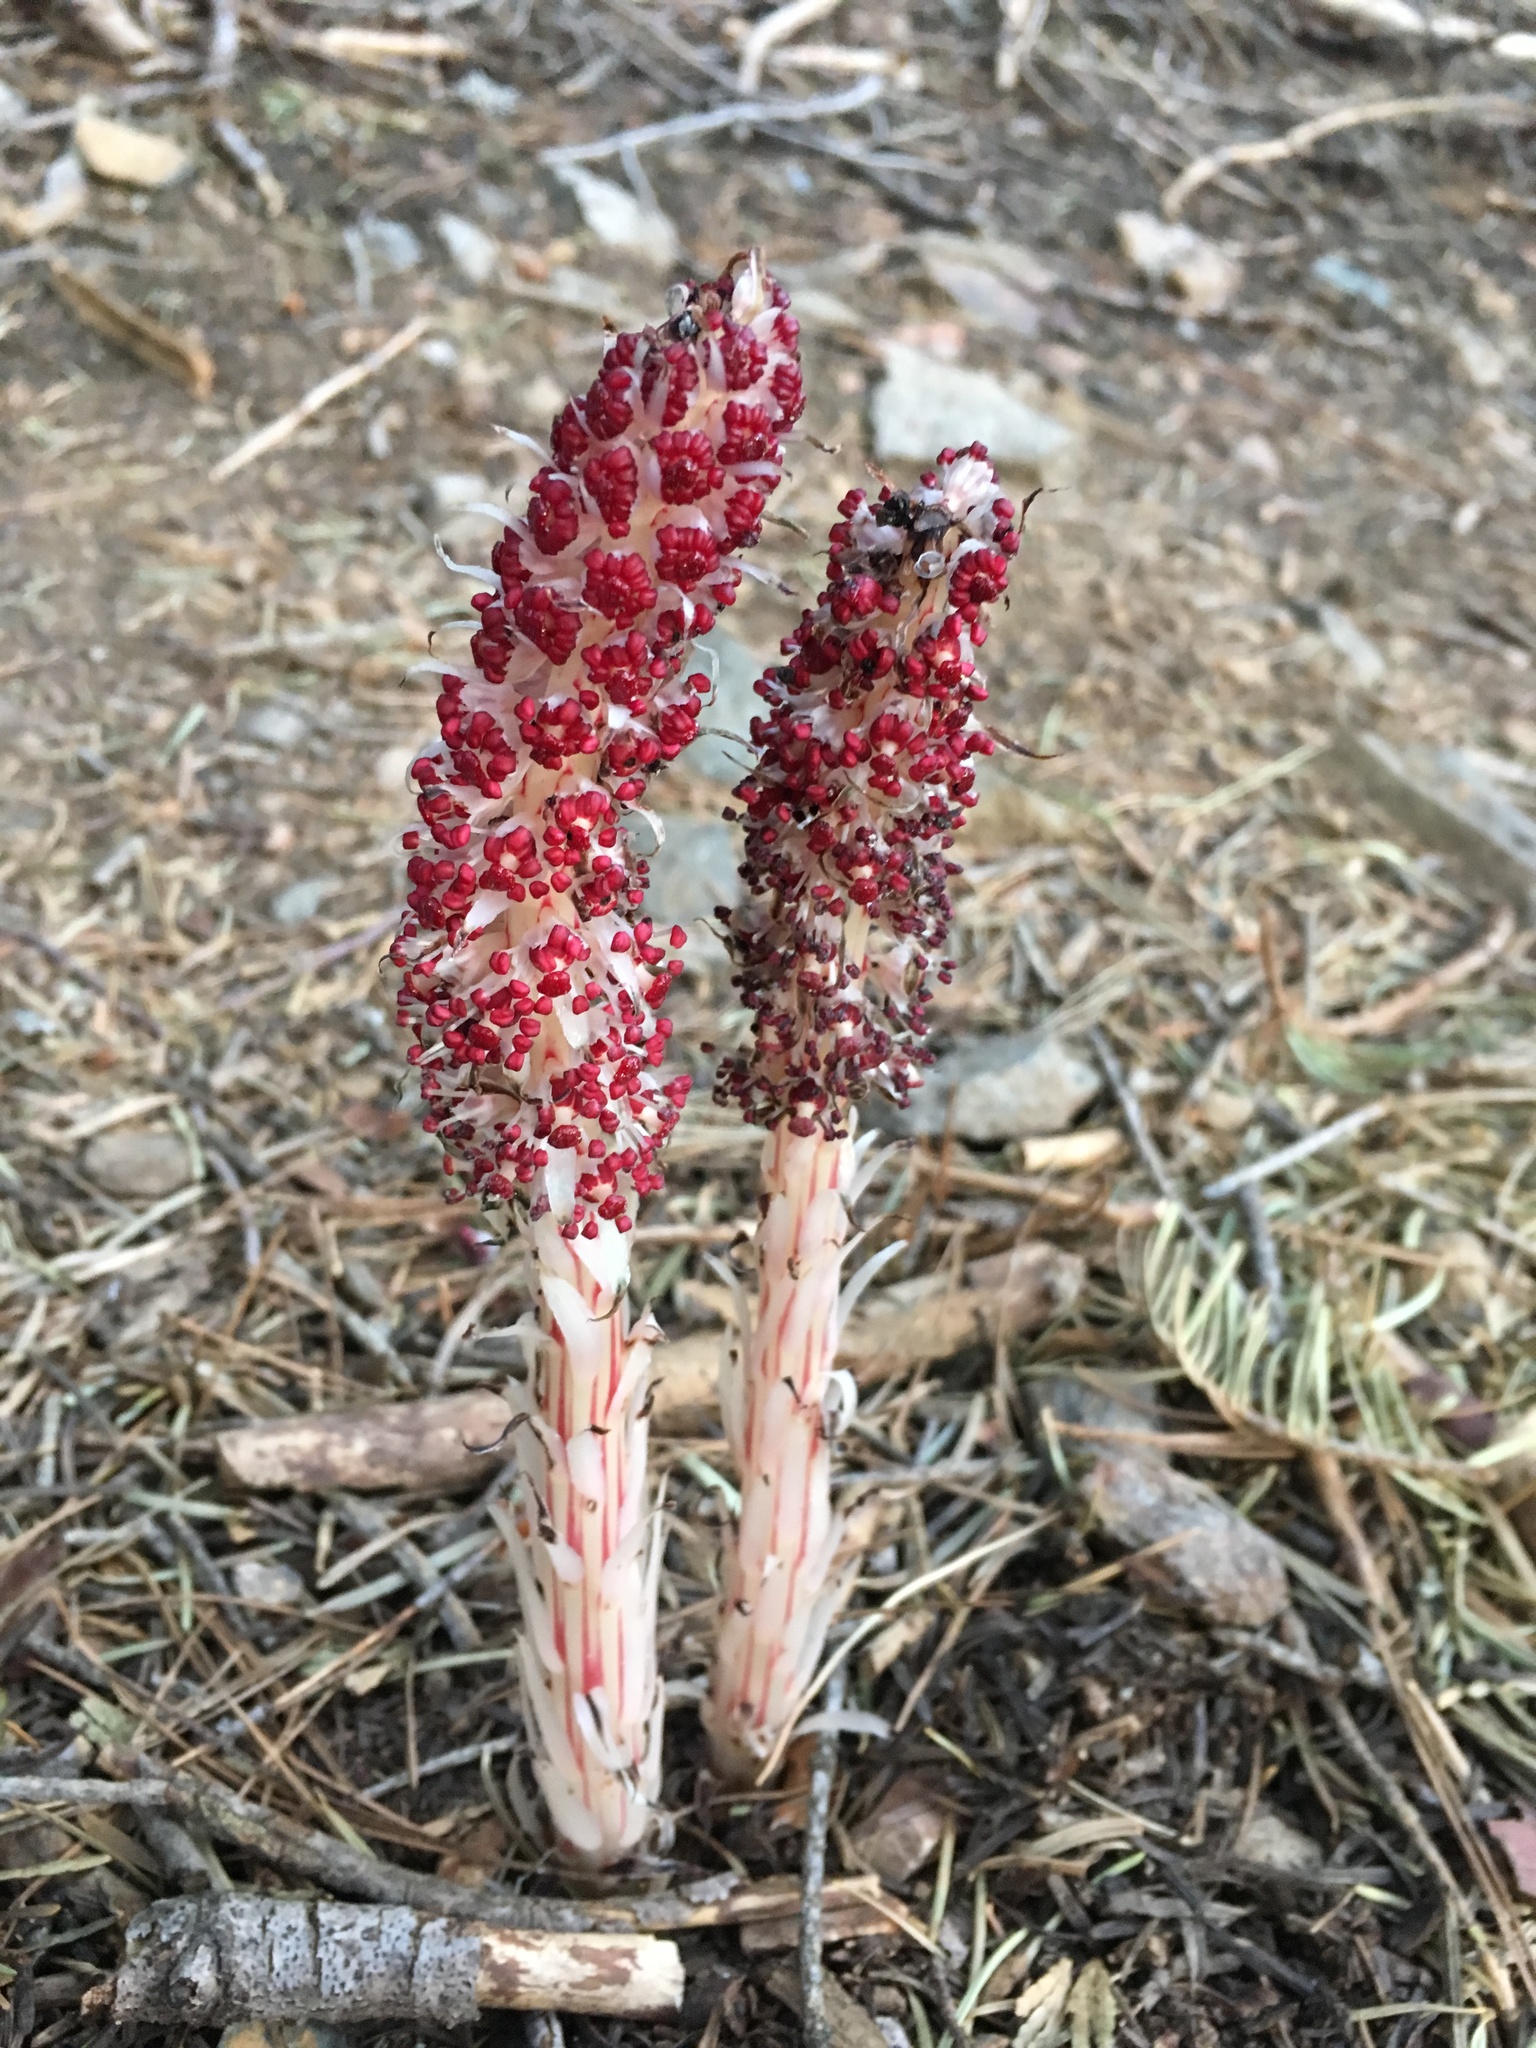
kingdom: Plantae
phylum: Tracheophyta
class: Magnoliopsida
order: Ericales
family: Ericaceae
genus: Allotropa
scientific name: Allotropa virgata
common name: Candy-striped allotropa
